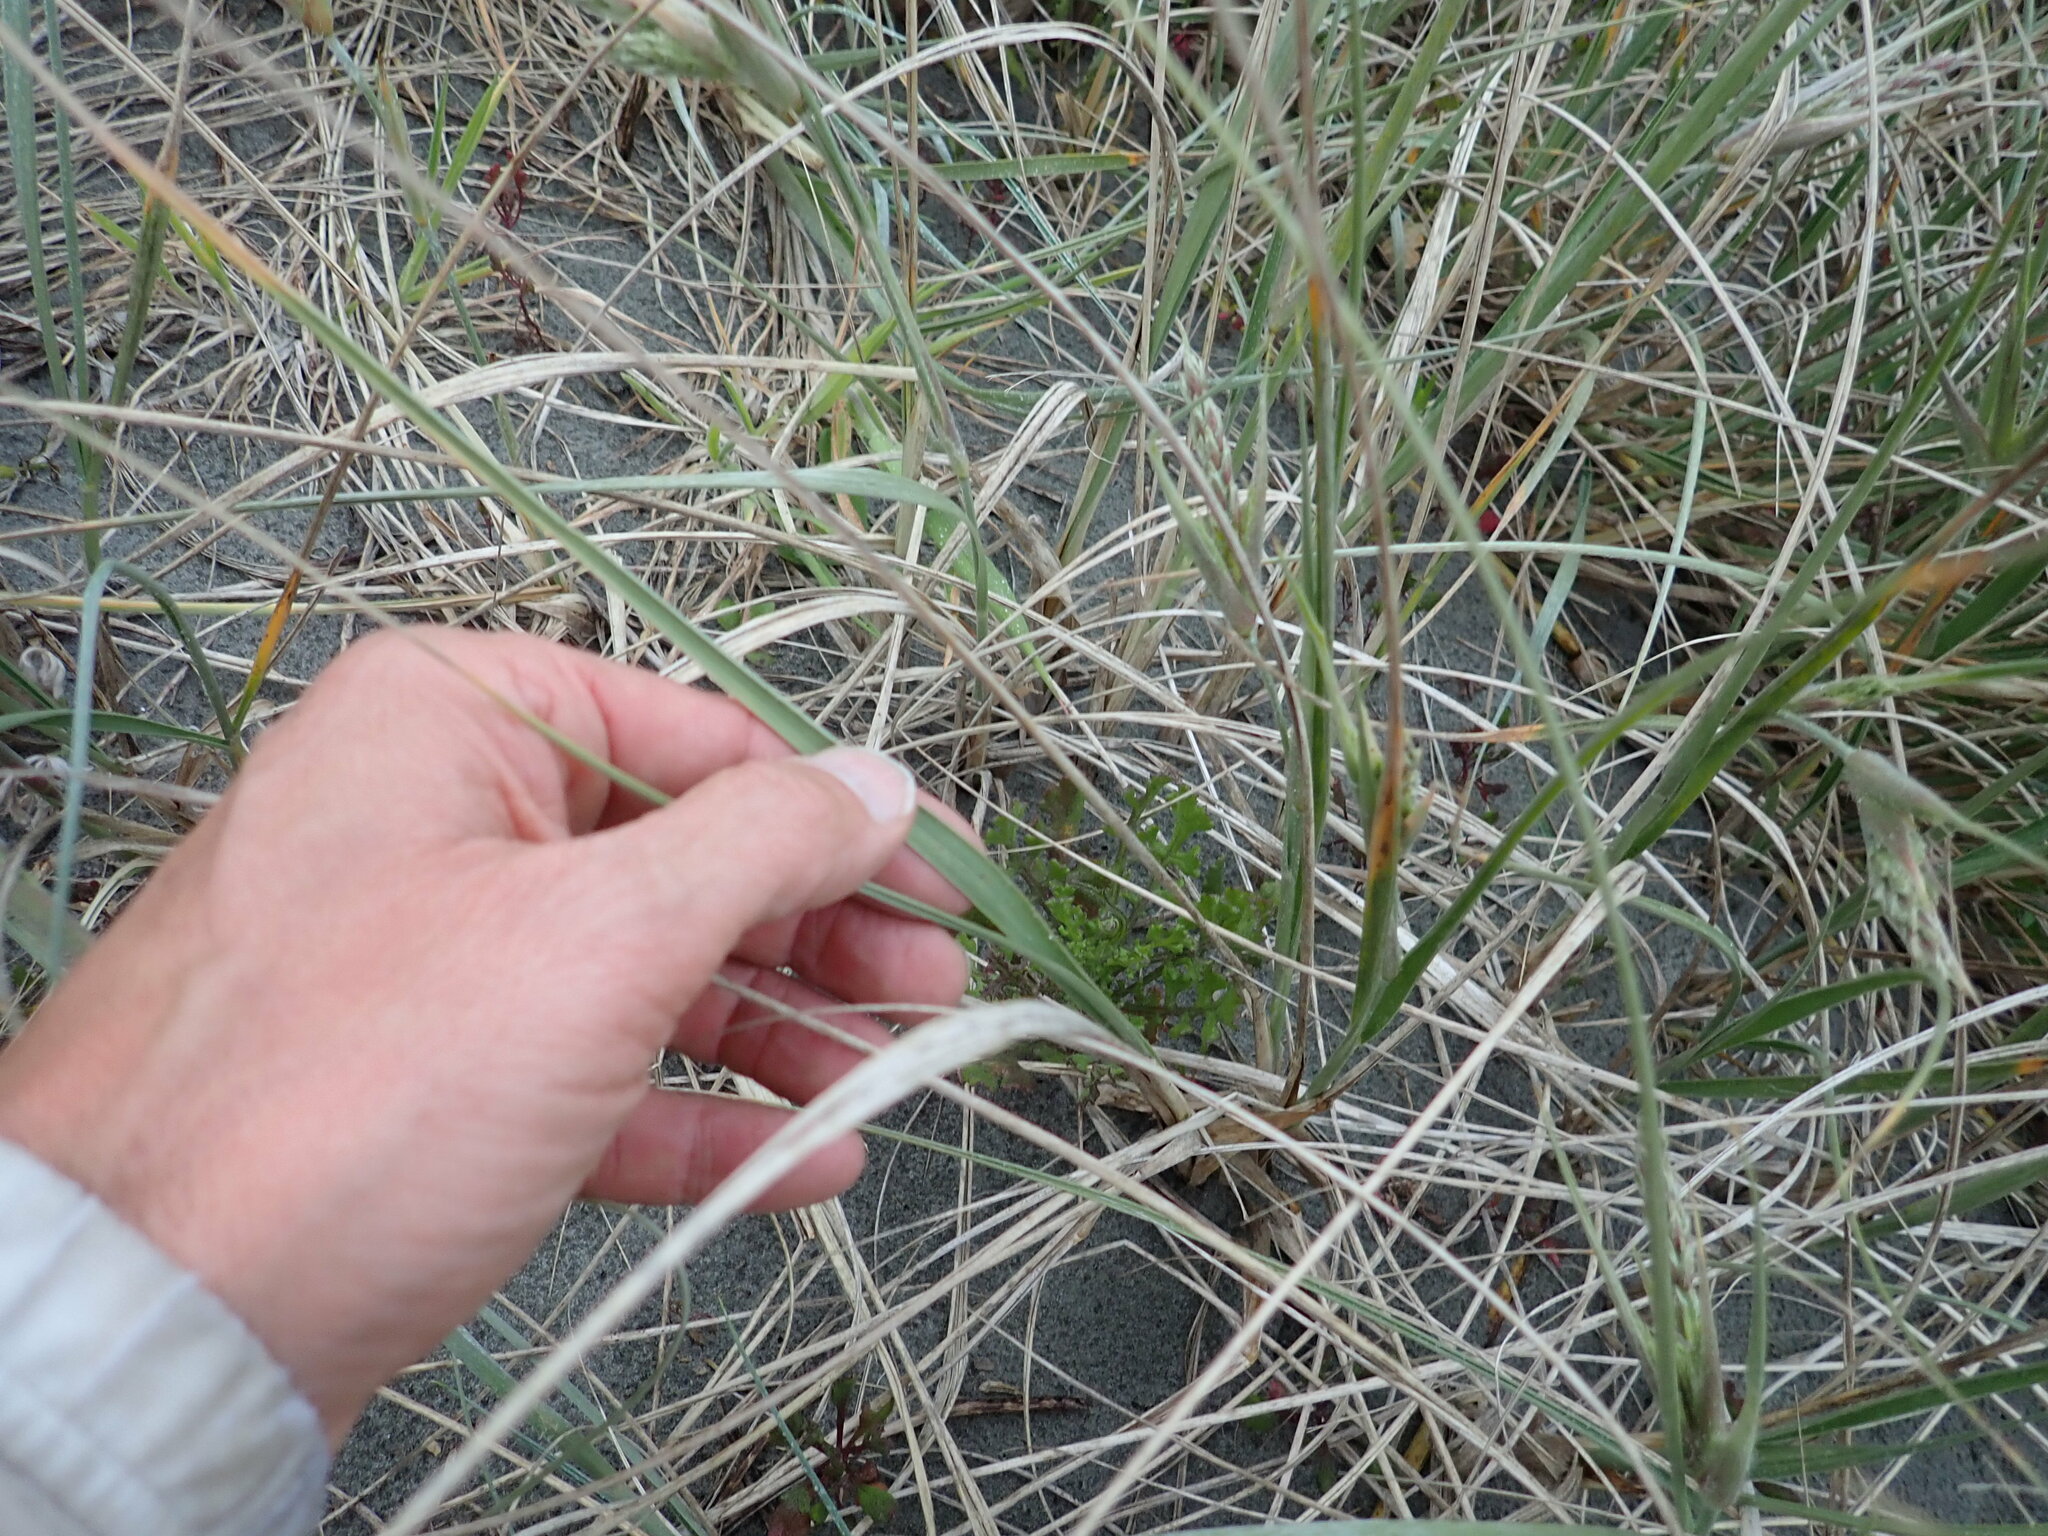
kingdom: Plantae
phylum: Tracheophyta
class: Liliopsida
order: Poales
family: Poaceae
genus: Spinifex
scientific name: Spinifex sericeus
